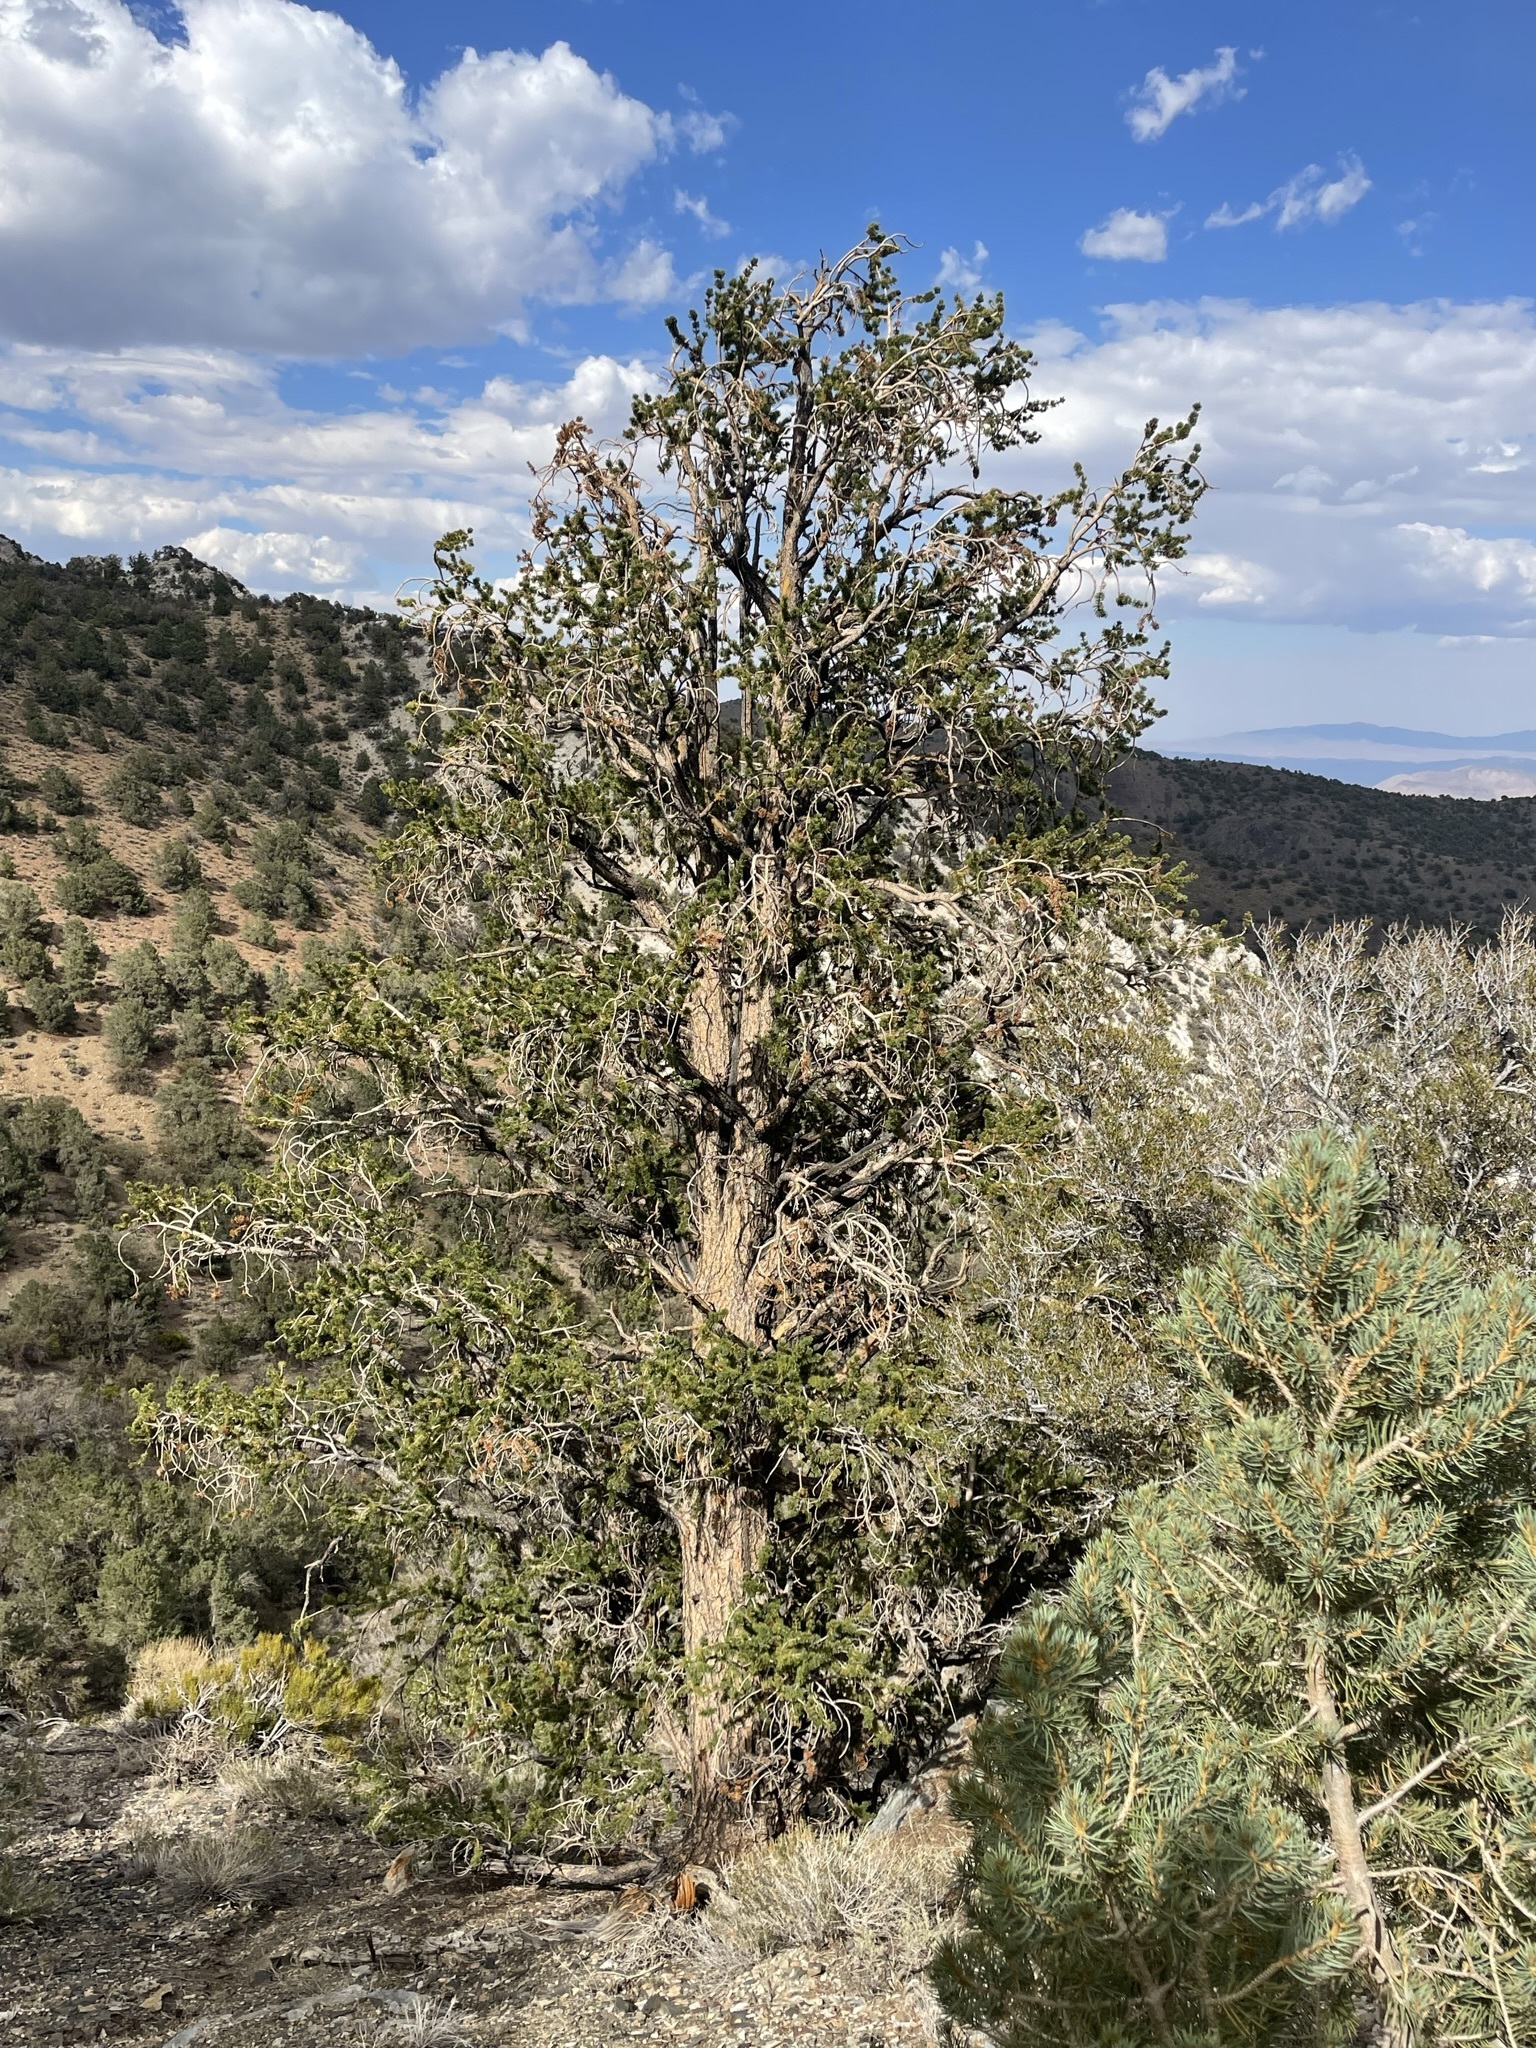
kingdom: Plantae
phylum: Tracheophyta
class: Pinopsida
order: Pinales
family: Pinaceae
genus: Pinus
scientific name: Pinus longaeva
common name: Intermountain bristlecone pine
